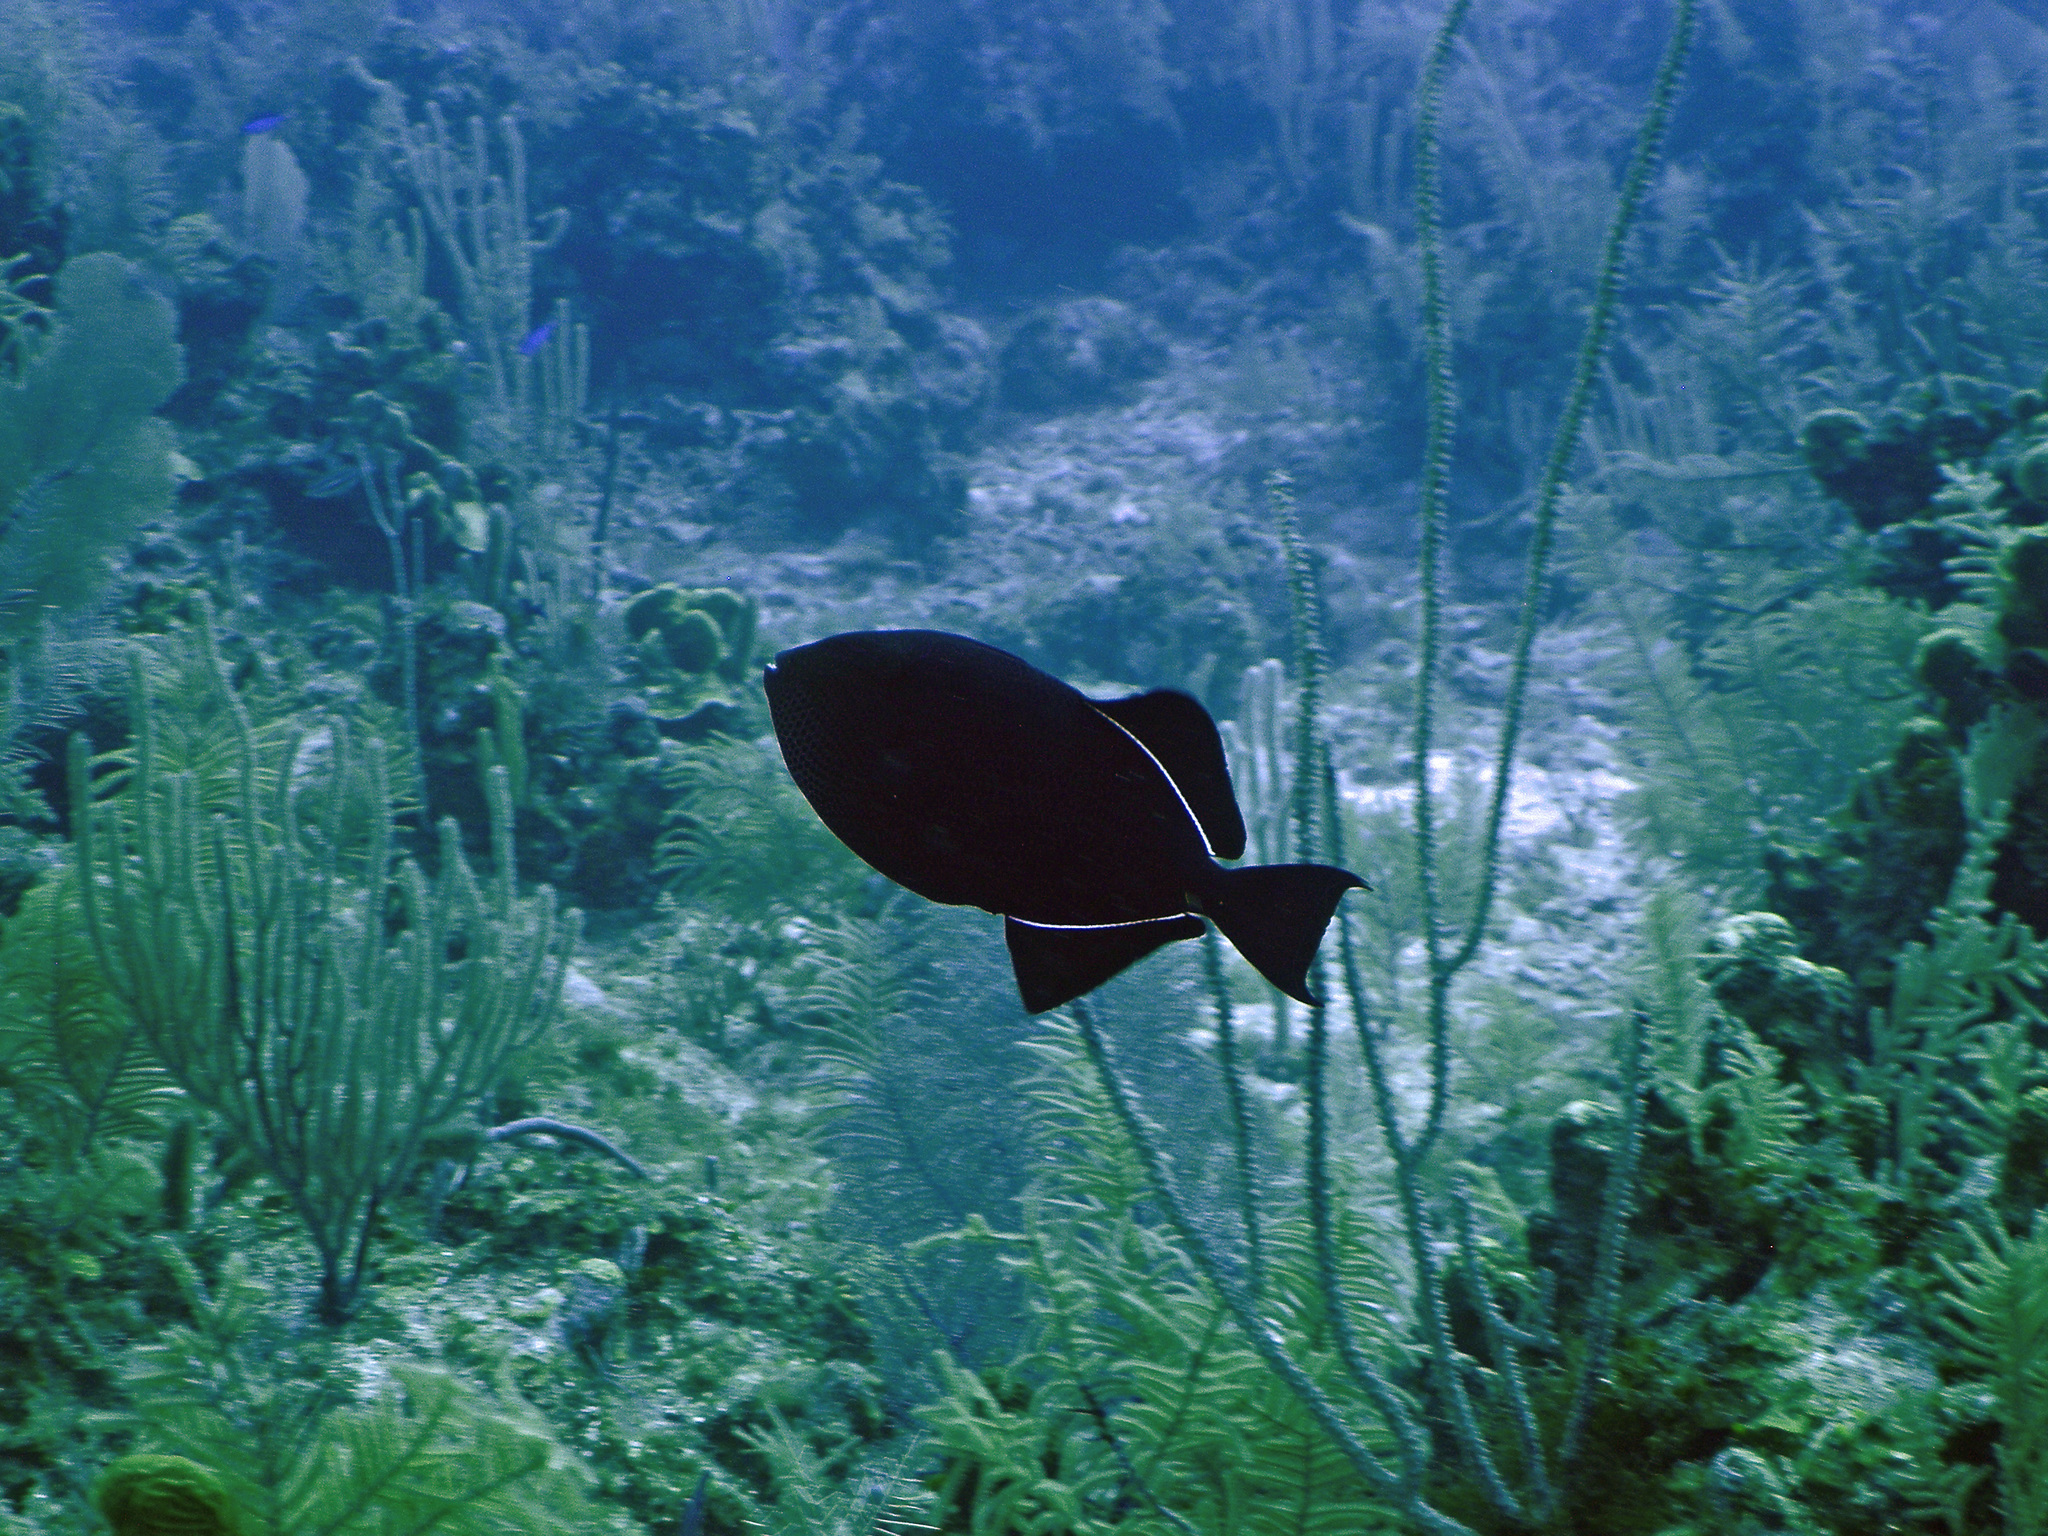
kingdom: Animalia
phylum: Chordata
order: Tetraodontiformes
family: Balistidae
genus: Melichthys
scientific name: Melichthys niger
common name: Black durgon
